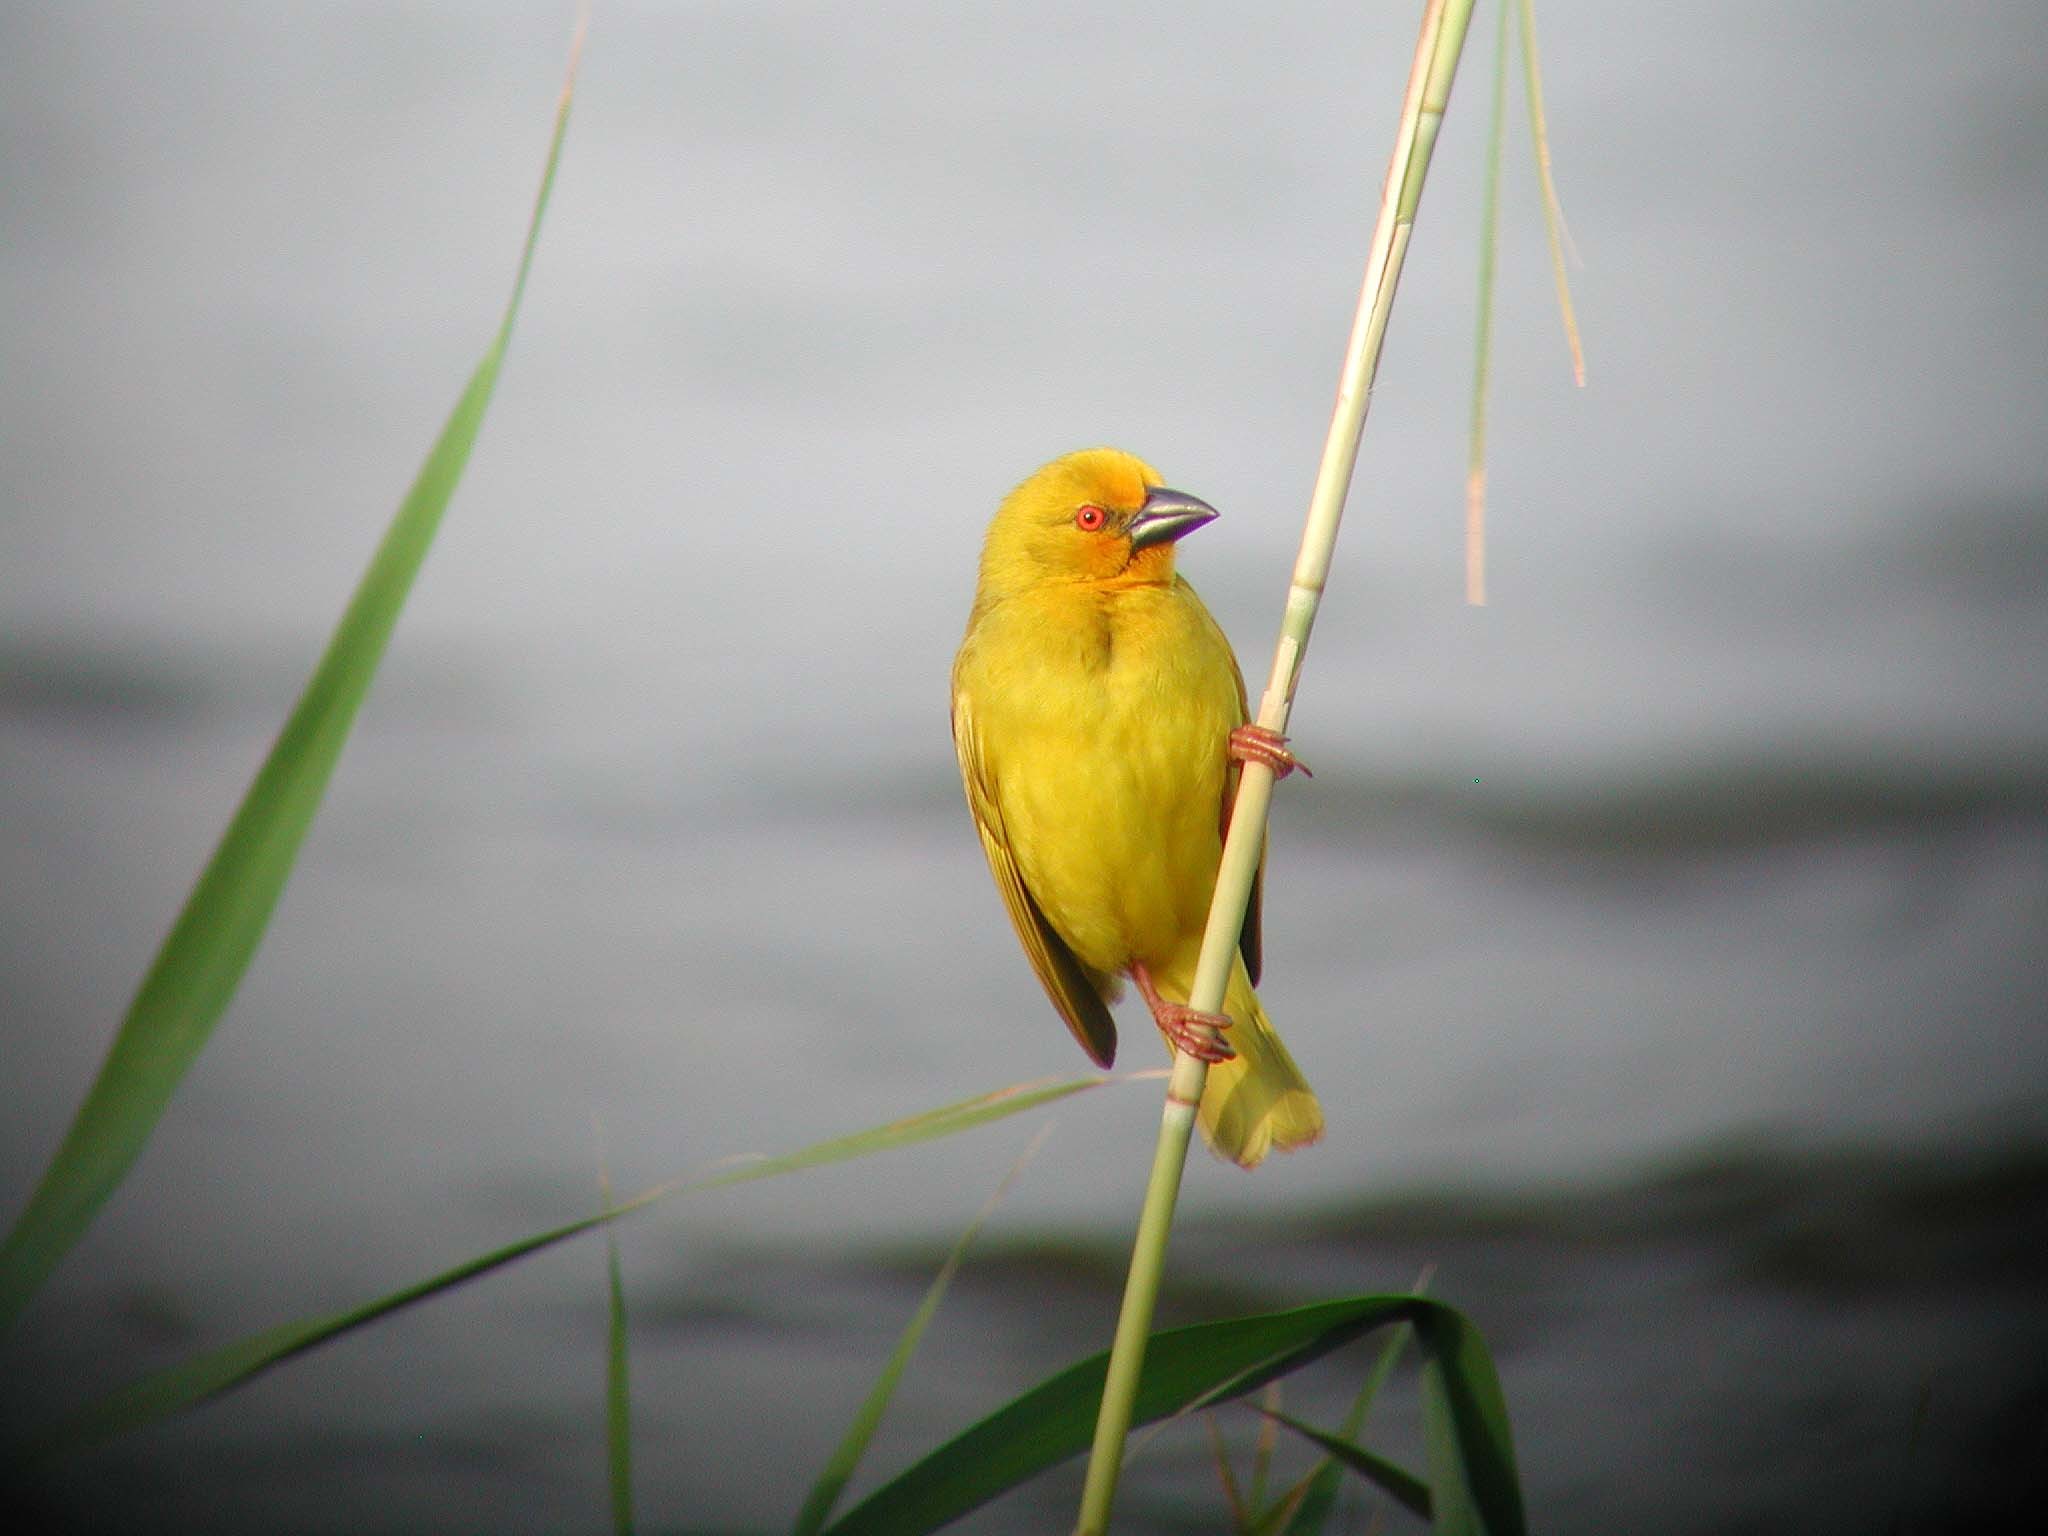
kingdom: Animalia
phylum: Chordata
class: Aves
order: Passeriformes
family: Ploceidae
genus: Ploceus
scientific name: Ploceus subaureus
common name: Yellow weaver
